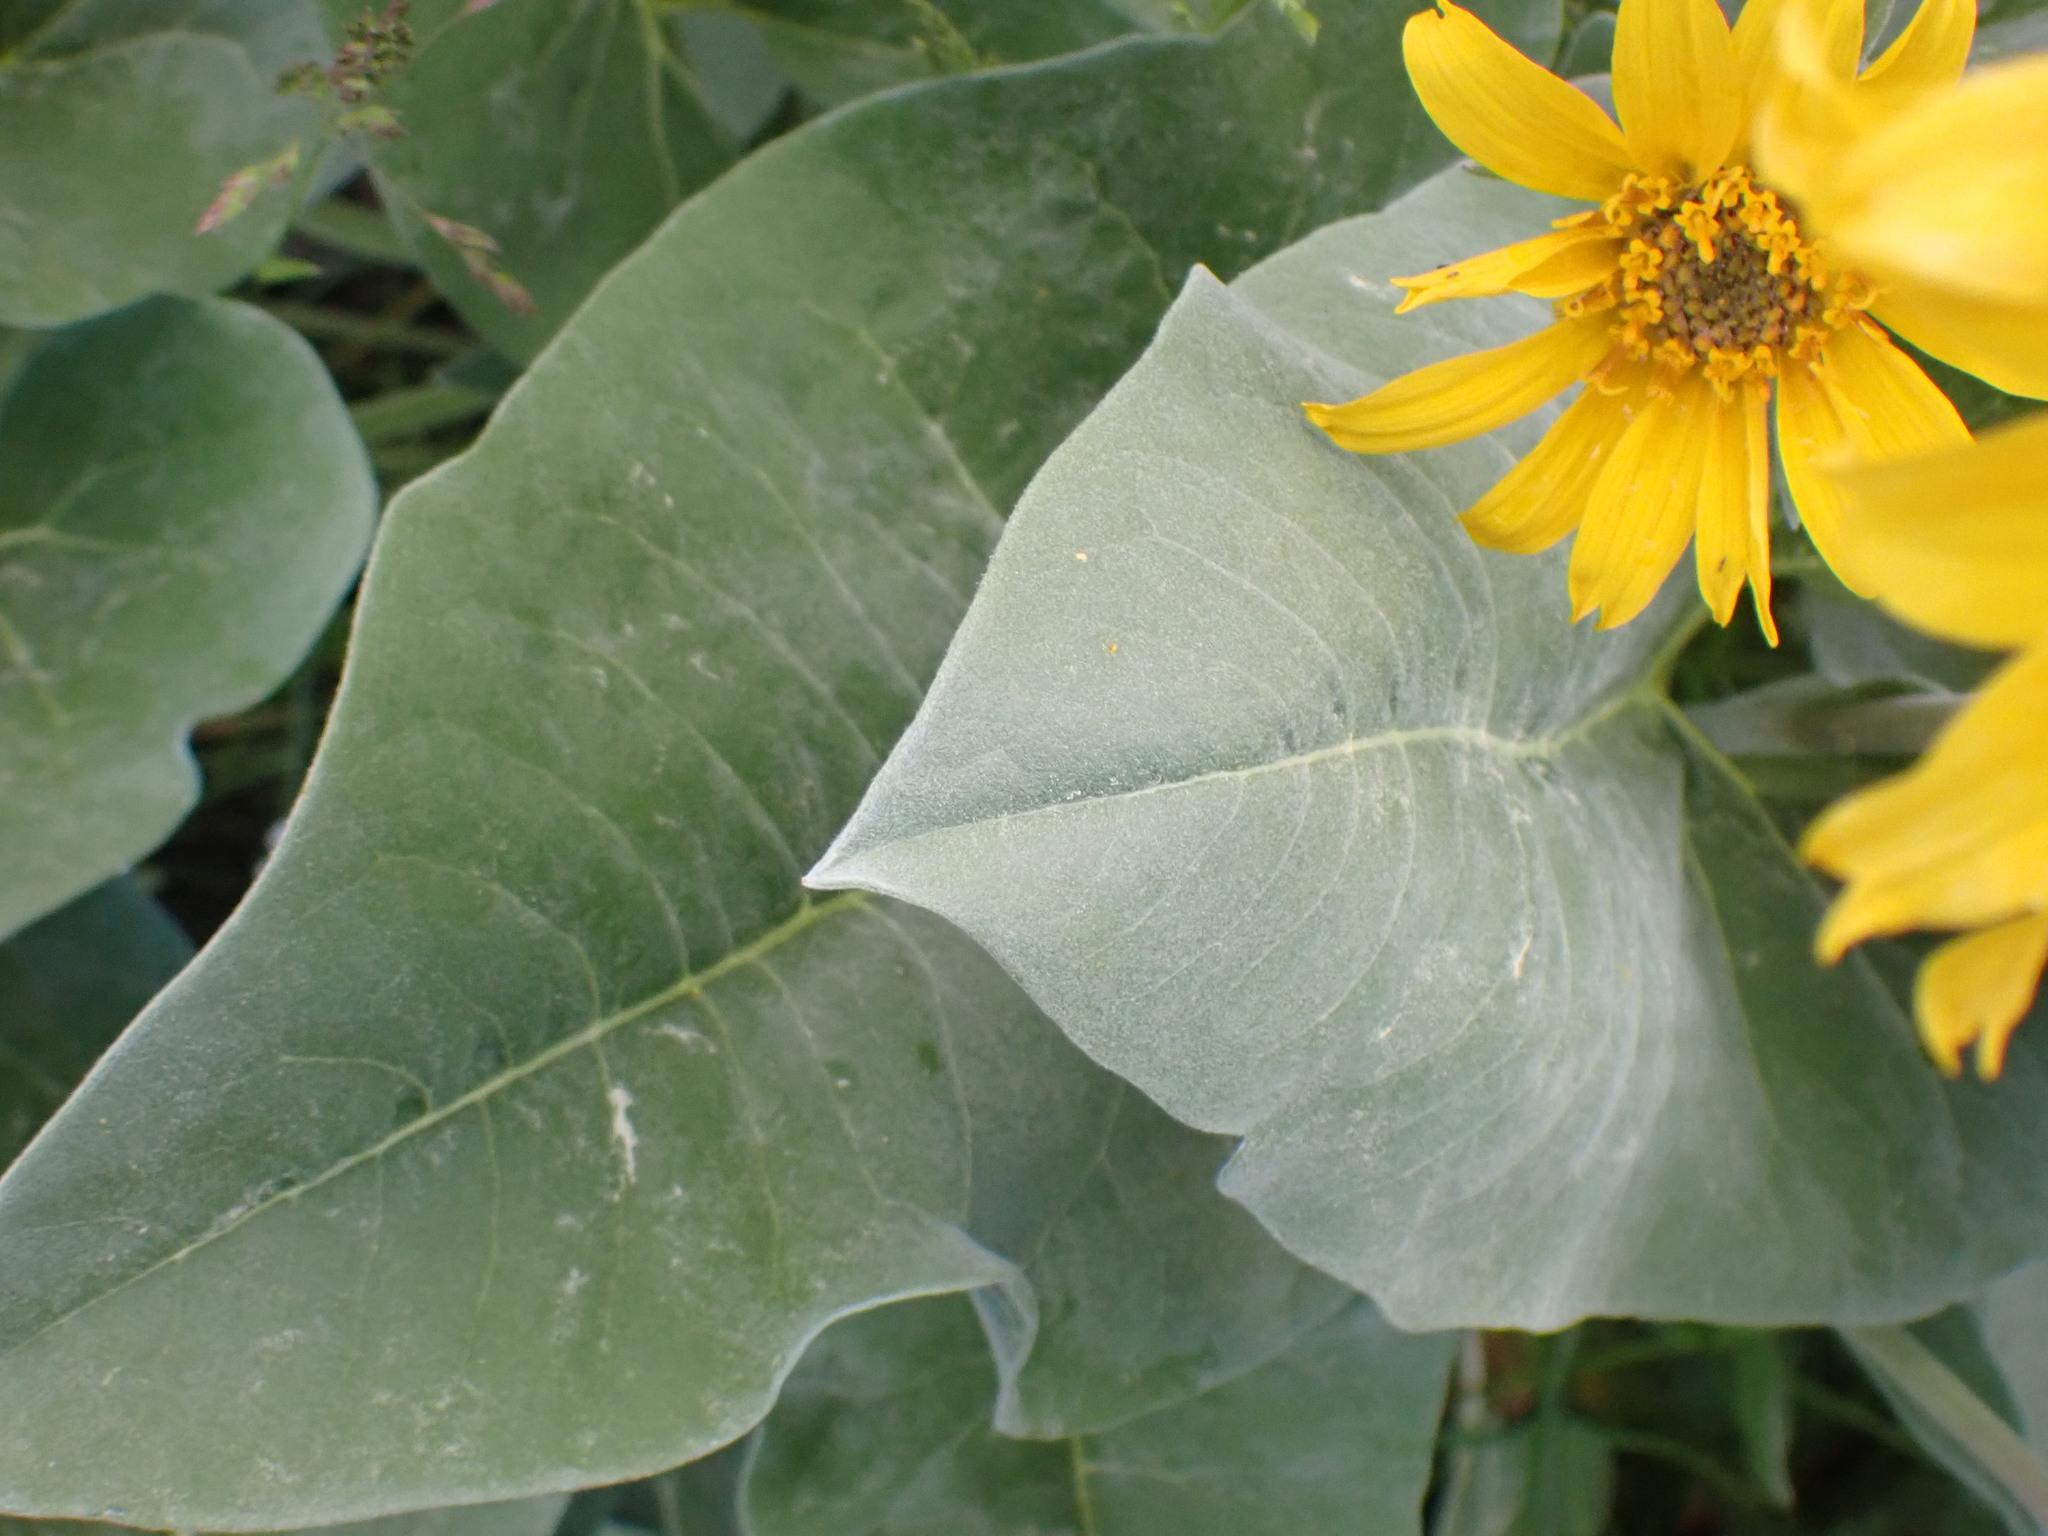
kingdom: Plantae
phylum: Tracheophyta
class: Magnoliopsida
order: Asterales
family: Asteraceae
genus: Wyethia
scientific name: Wyethia sagittata
